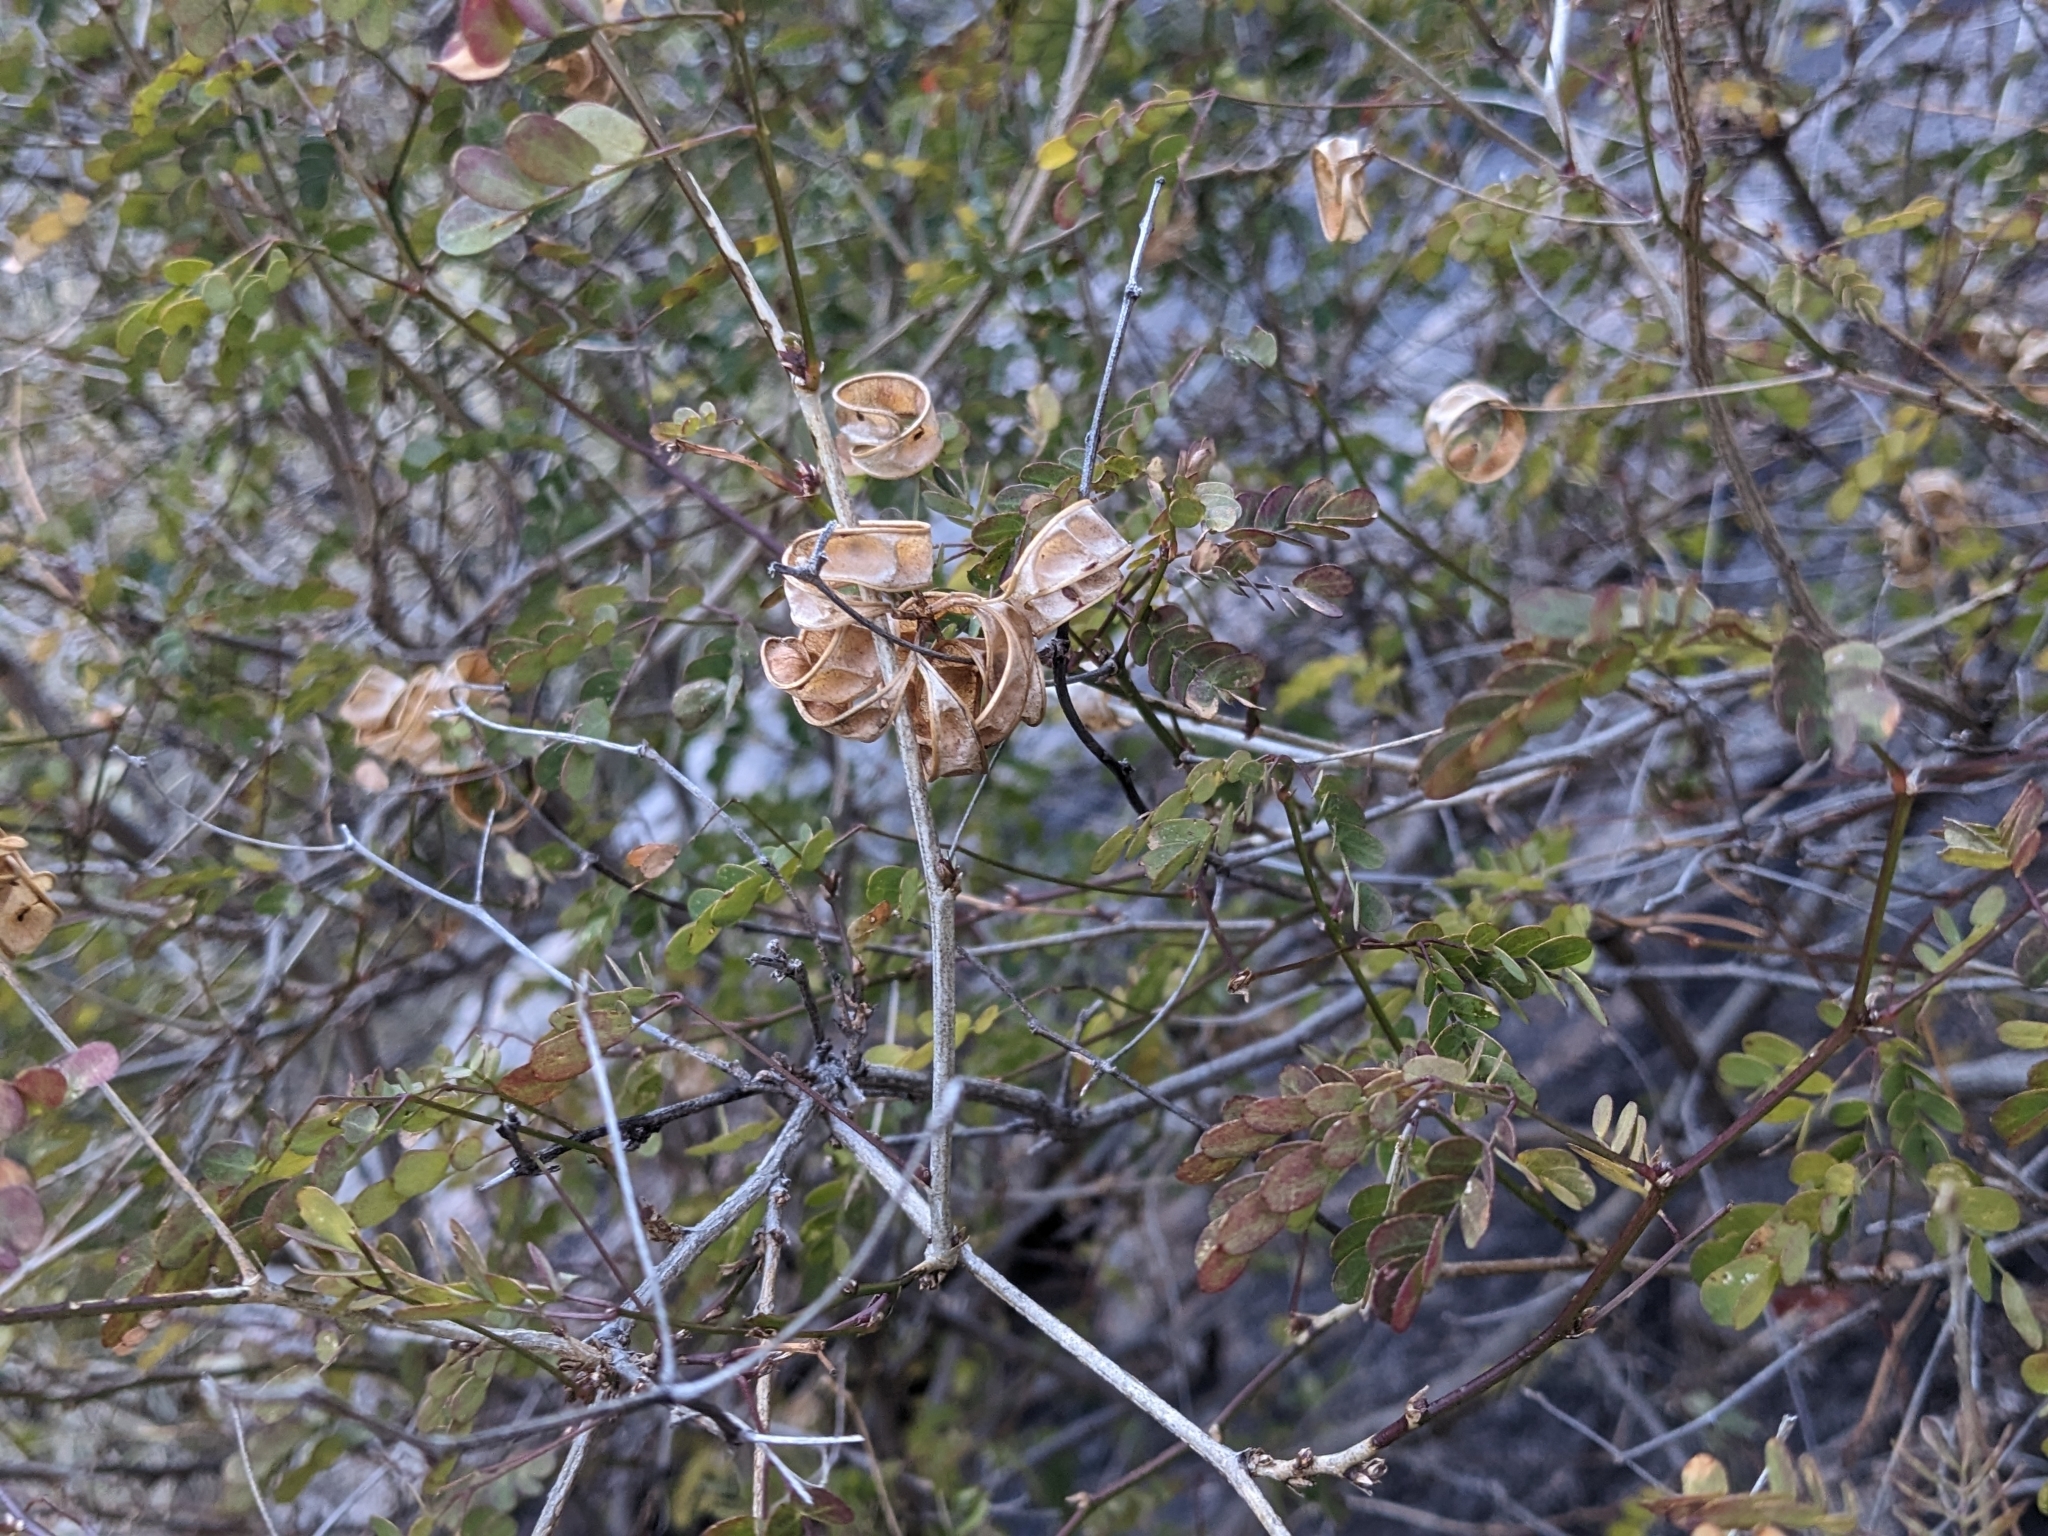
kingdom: Plantae
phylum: Tracheophyta
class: Magnoliopsida
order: Fabales
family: Fabaceae
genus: Zapoteca
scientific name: Zapoteca formosa
